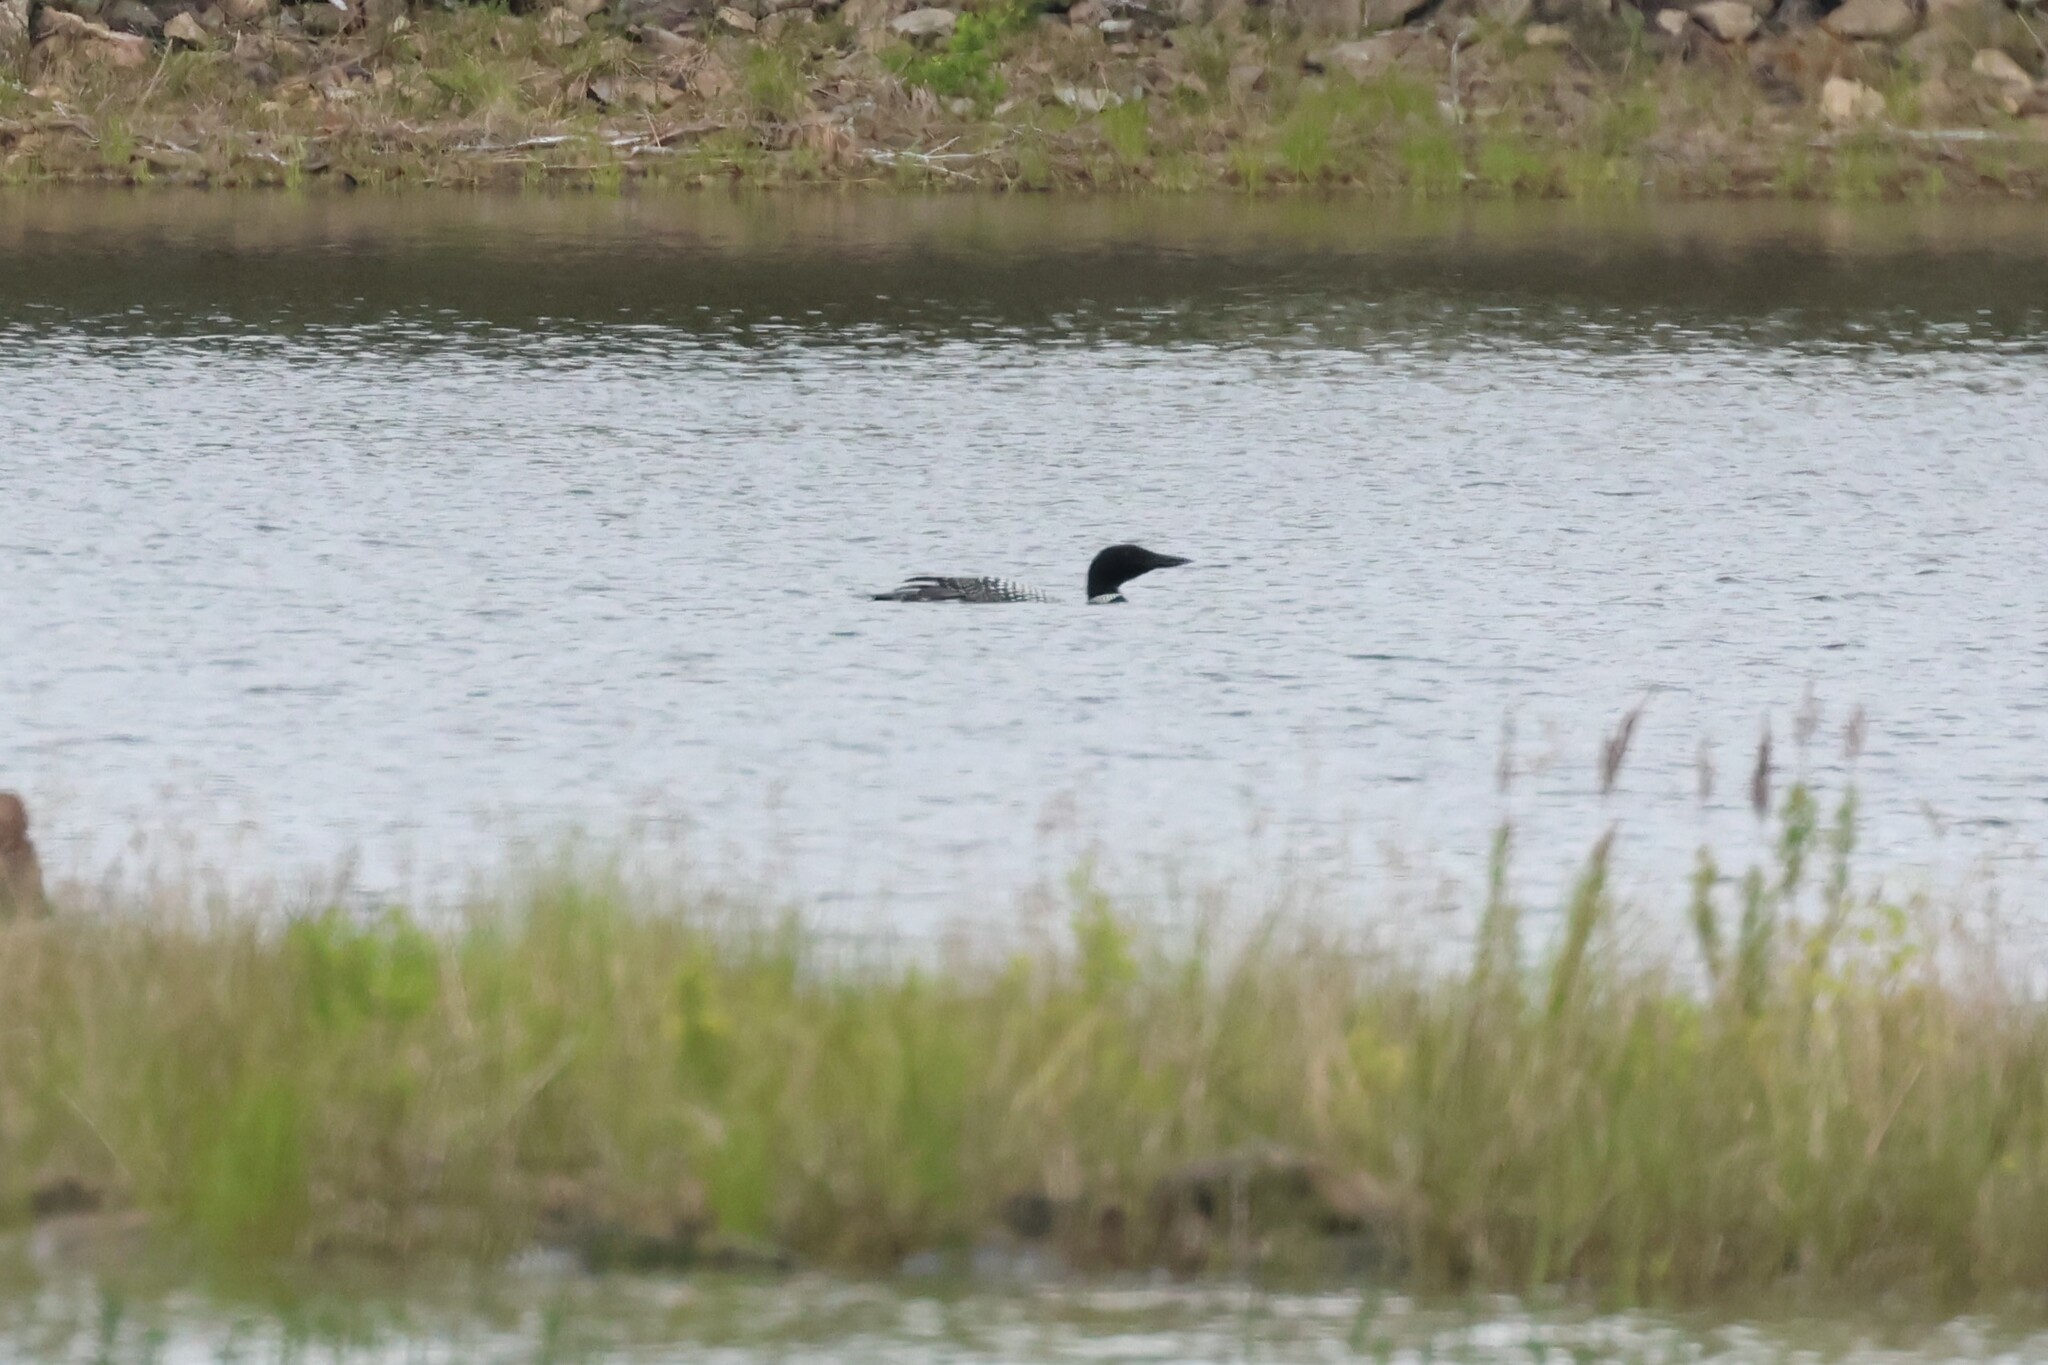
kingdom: Animalia
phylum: Chordata
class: Aves
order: Gaviiformes
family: Gaviidae
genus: Gavia
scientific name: Gavia immer
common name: Common loon
